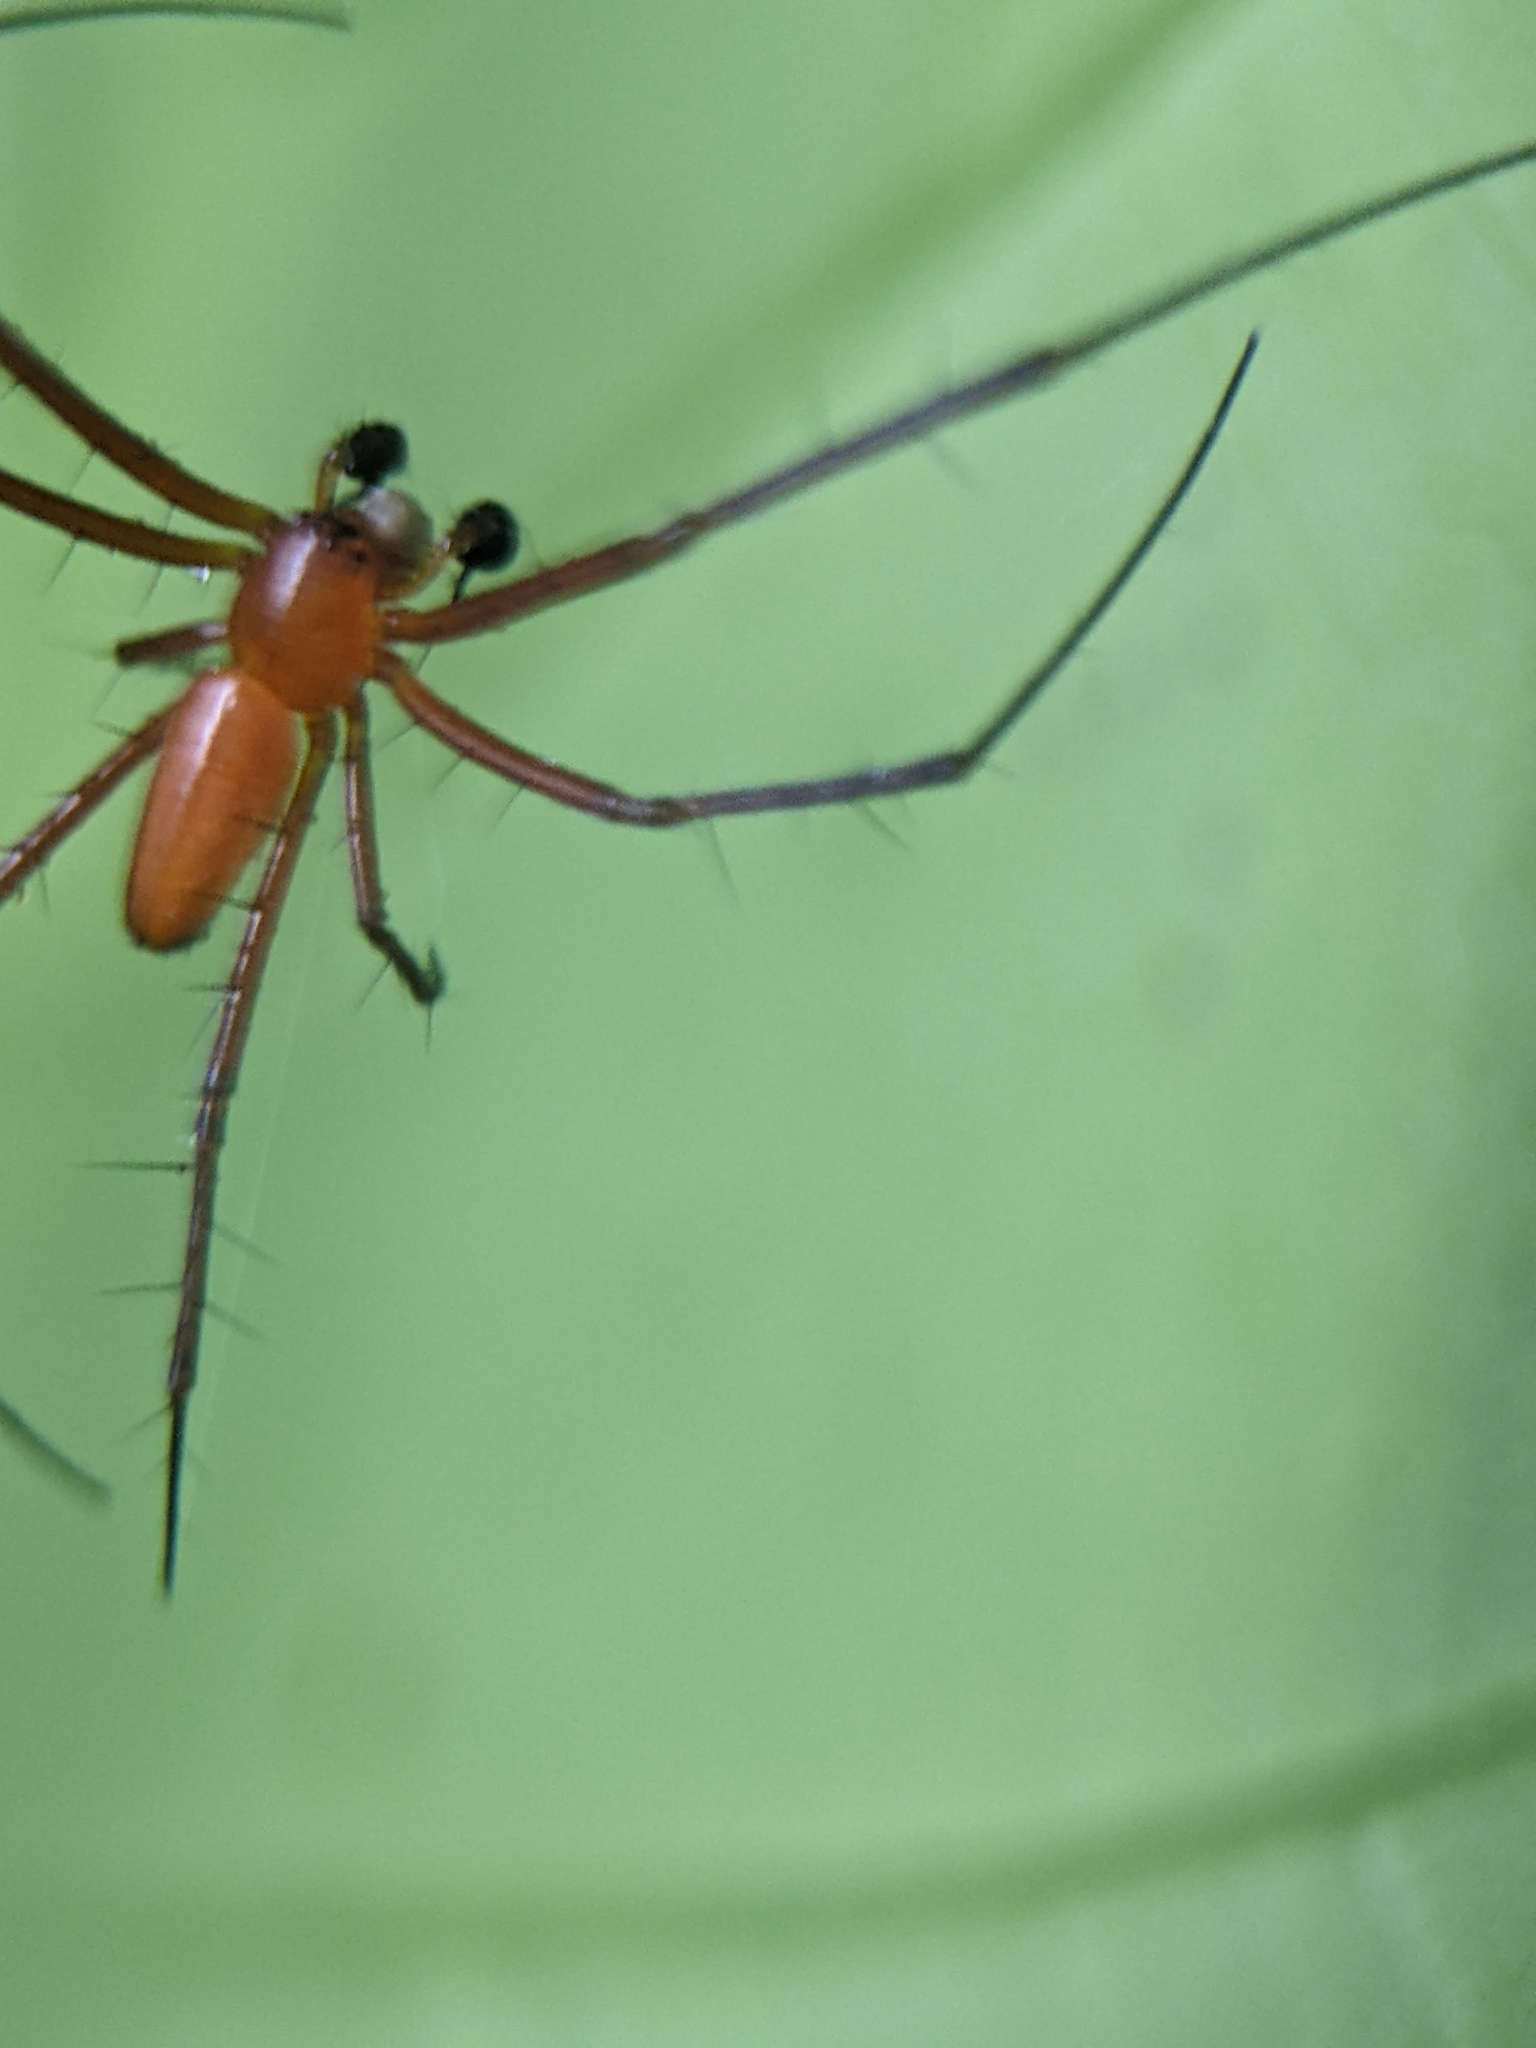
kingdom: Animalia
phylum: Arthropoda
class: Arachnida
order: Araneae
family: Araneidae
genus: Nephila
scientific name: Nephila pilipes
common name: Giant golden orb weaver
